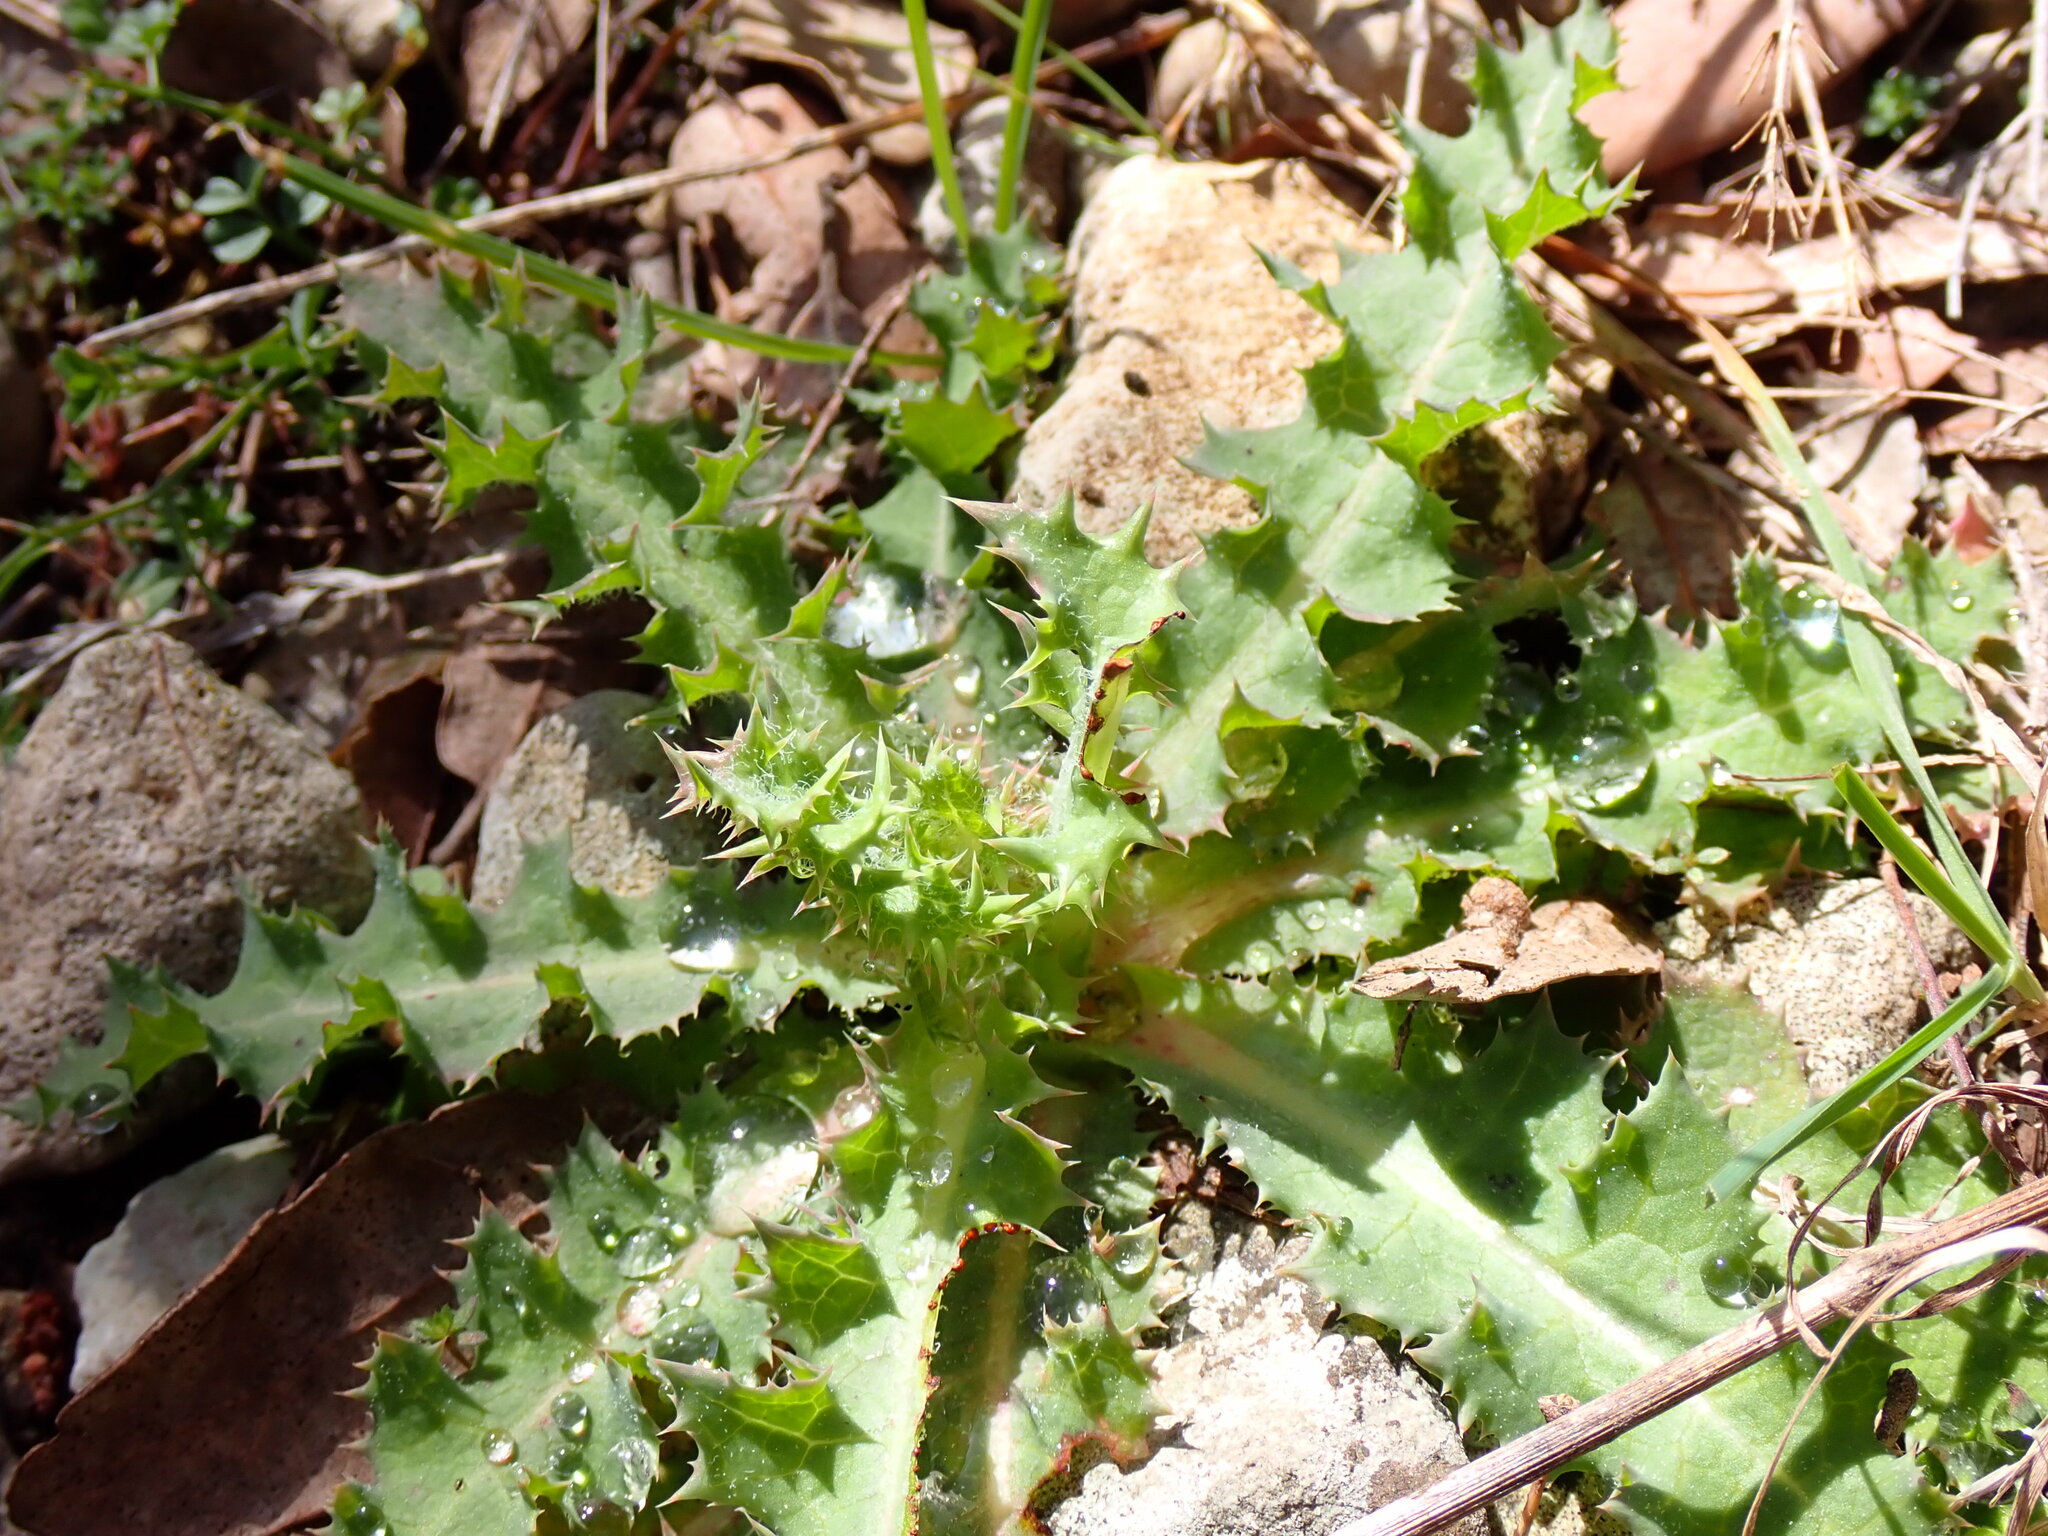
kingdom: Plantae
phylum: Tracheophyta
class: Magnoliopsida
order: Asterales
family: Asteraceae
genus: Sonchus
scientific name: Sonchus asper
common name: Prickly sow-thistle
